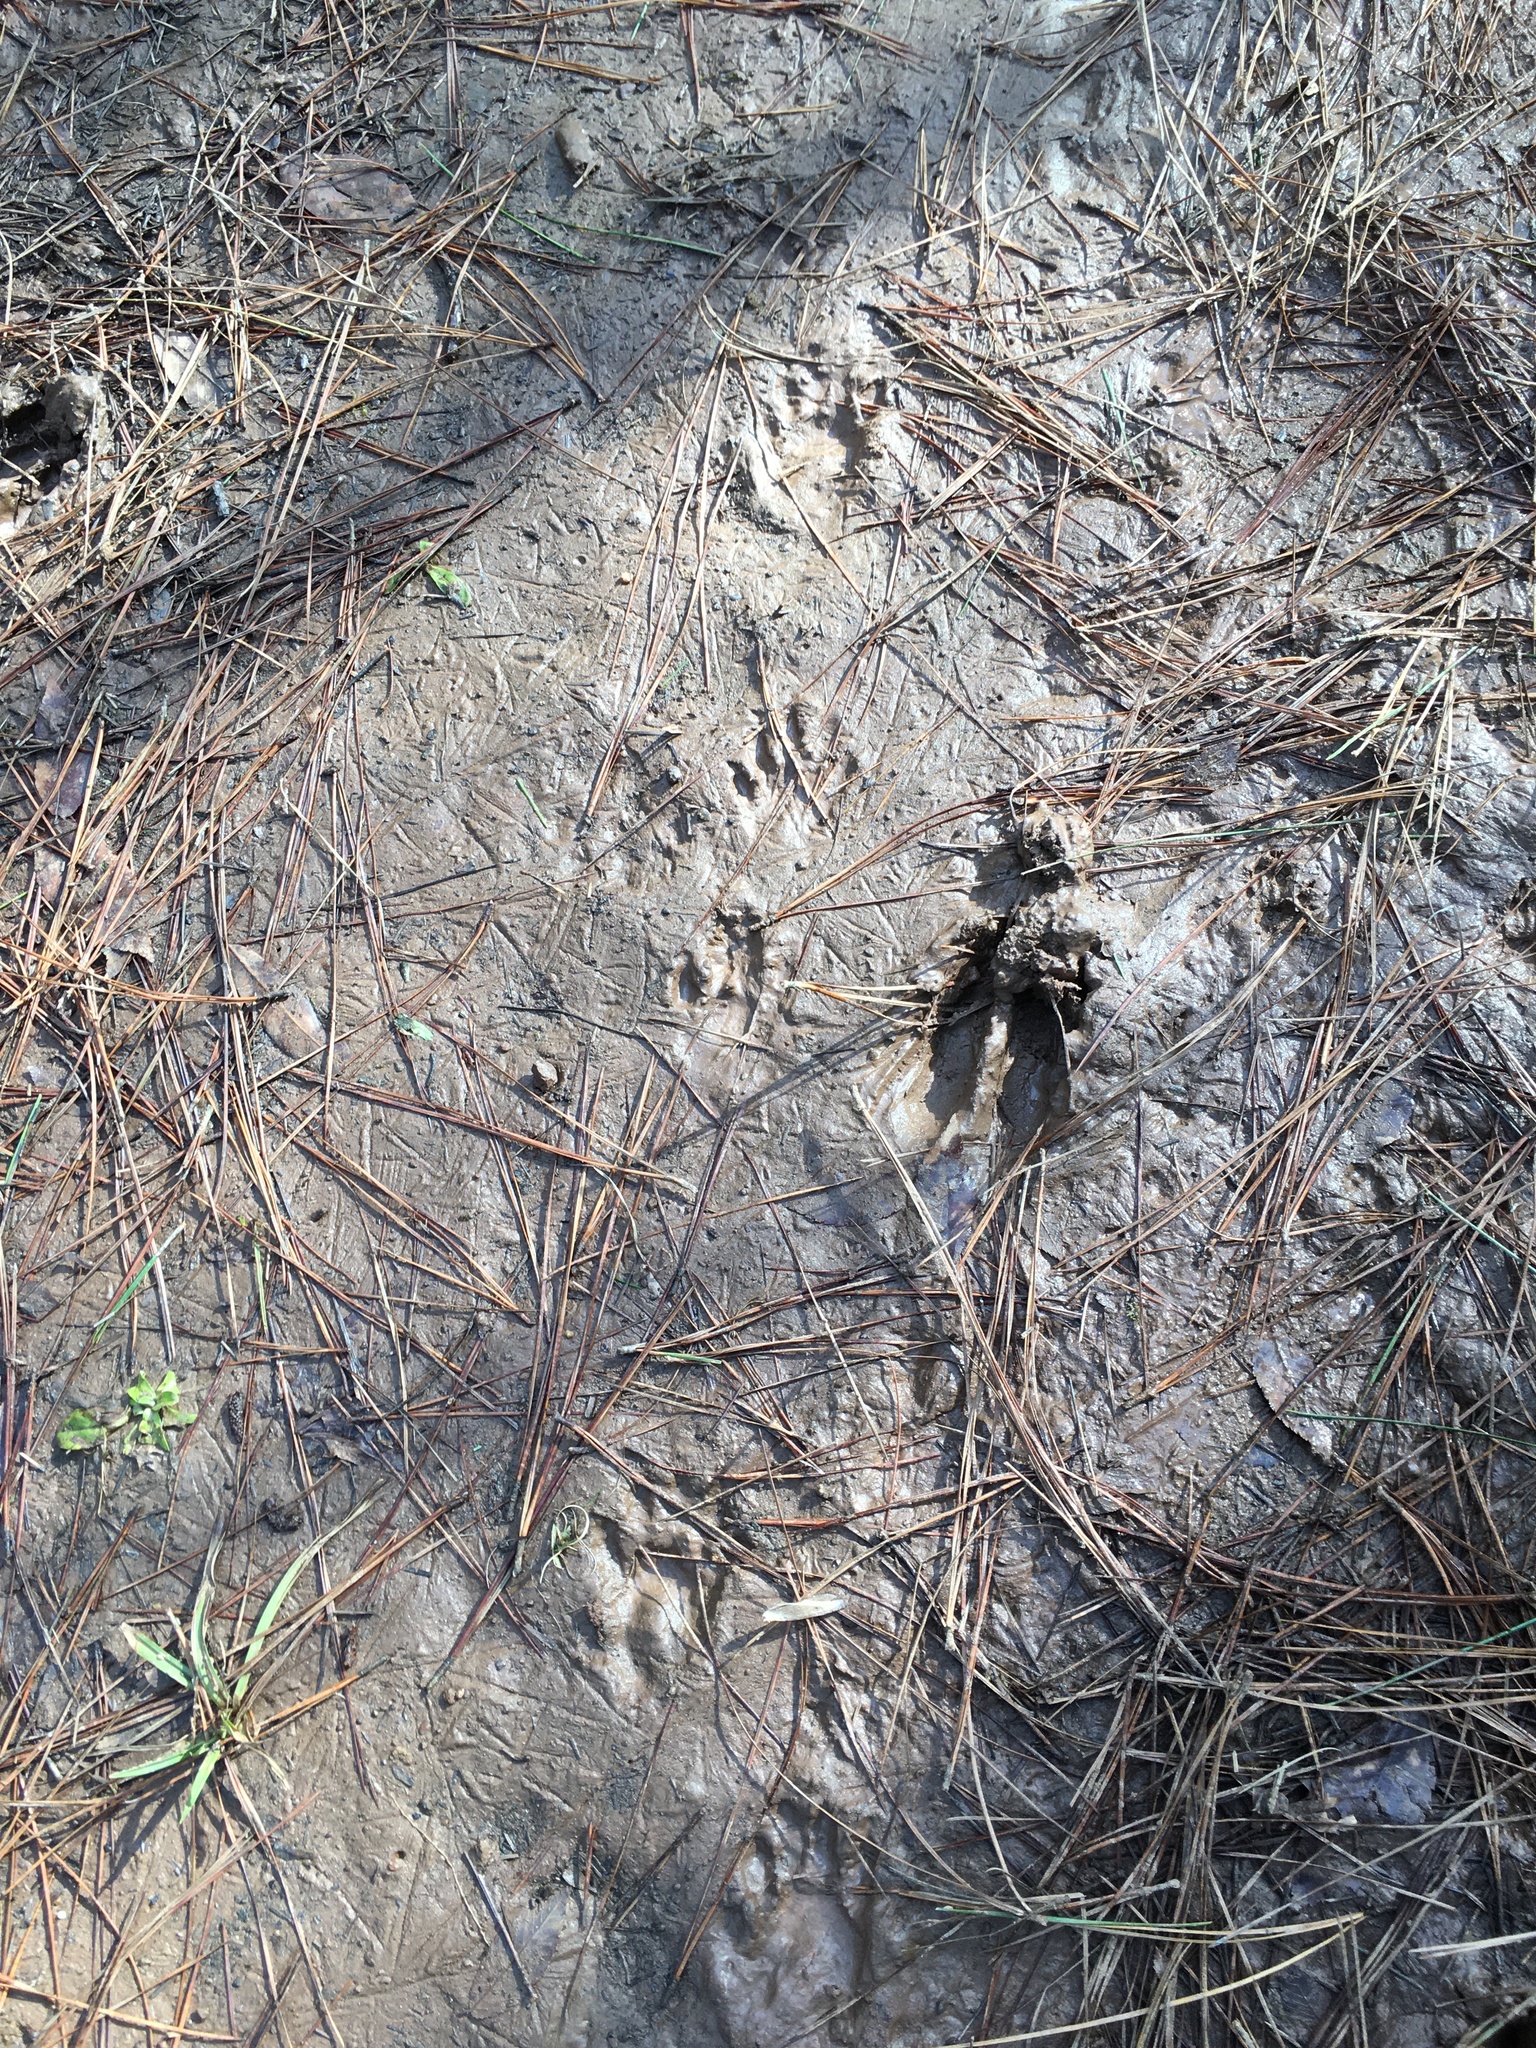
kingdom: Animalia
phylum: Chordata
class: Mammalia
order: Artiodactyla
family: Cervidae
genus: Odocoileus
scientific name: Odocoileus virginianus
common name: White-tailed deer
